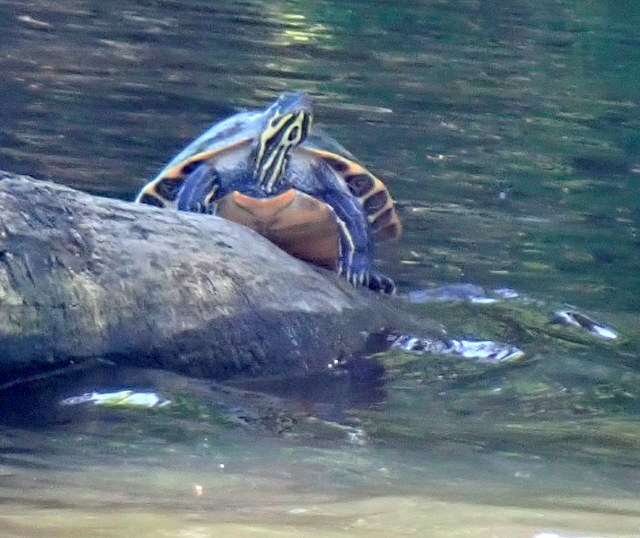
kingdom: Animalia
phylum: Chordata
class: Testudines
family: Emydidae
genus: Pseudemys
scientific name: Pseudemys concinna
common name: Eastern river cooter
